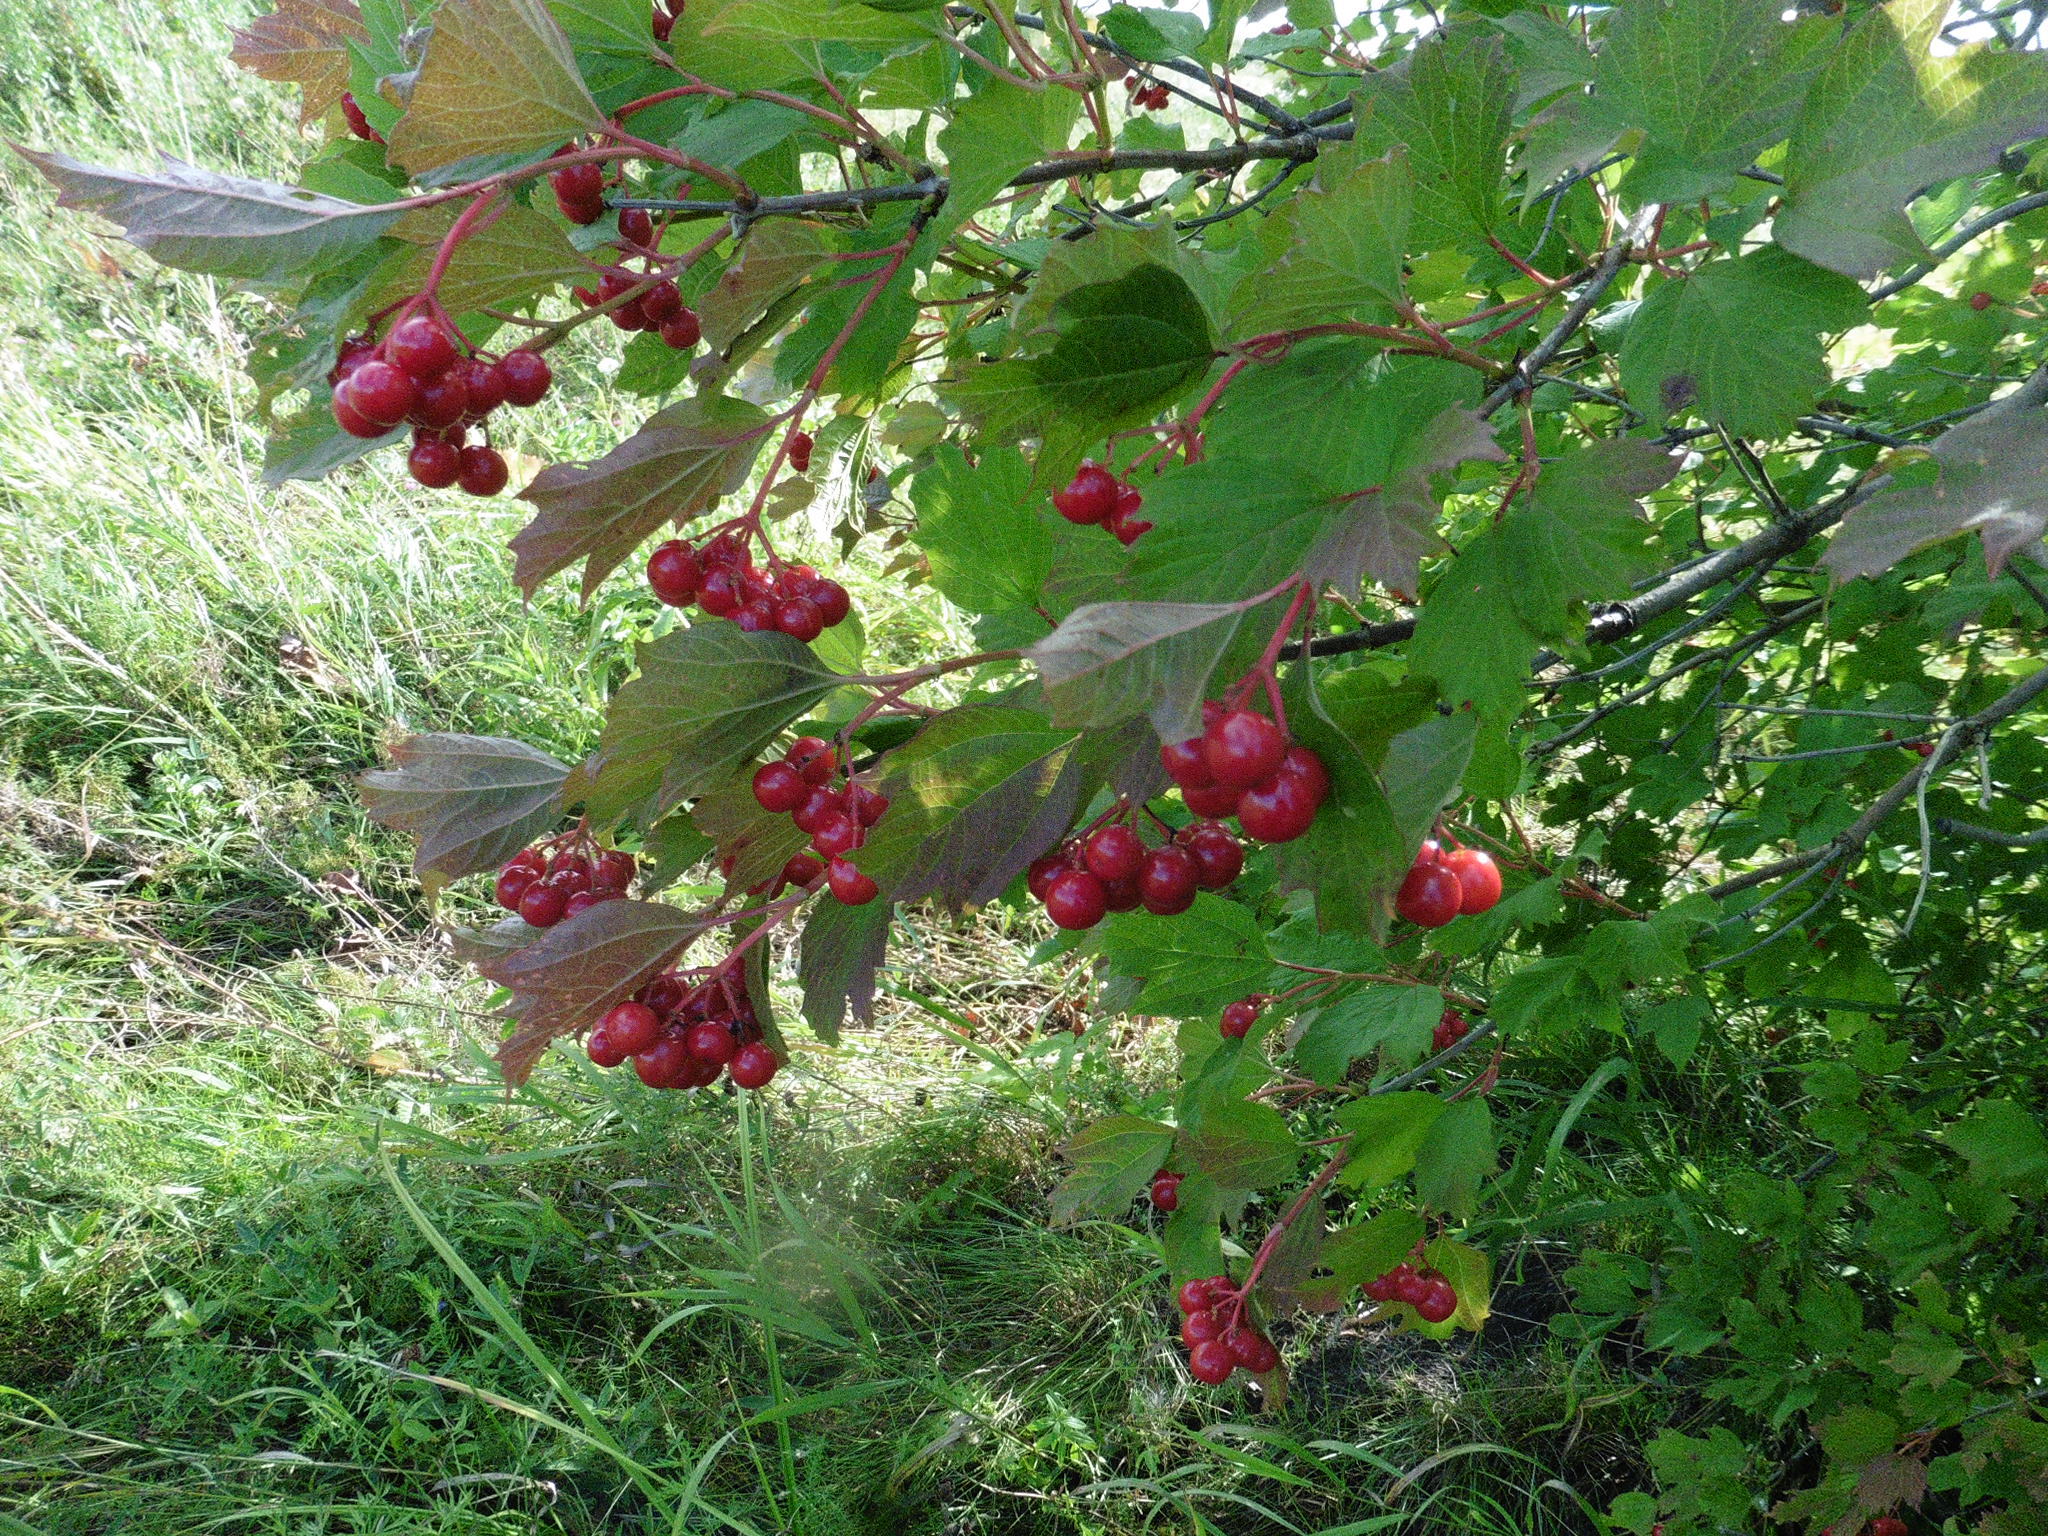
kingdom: Plantae
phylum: Tracheophyta
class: Magnoliopsida
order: Dipsacales
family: Viburnaceae
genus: Viburnum
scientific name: Viburnum opulus
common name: Guelder-rose
